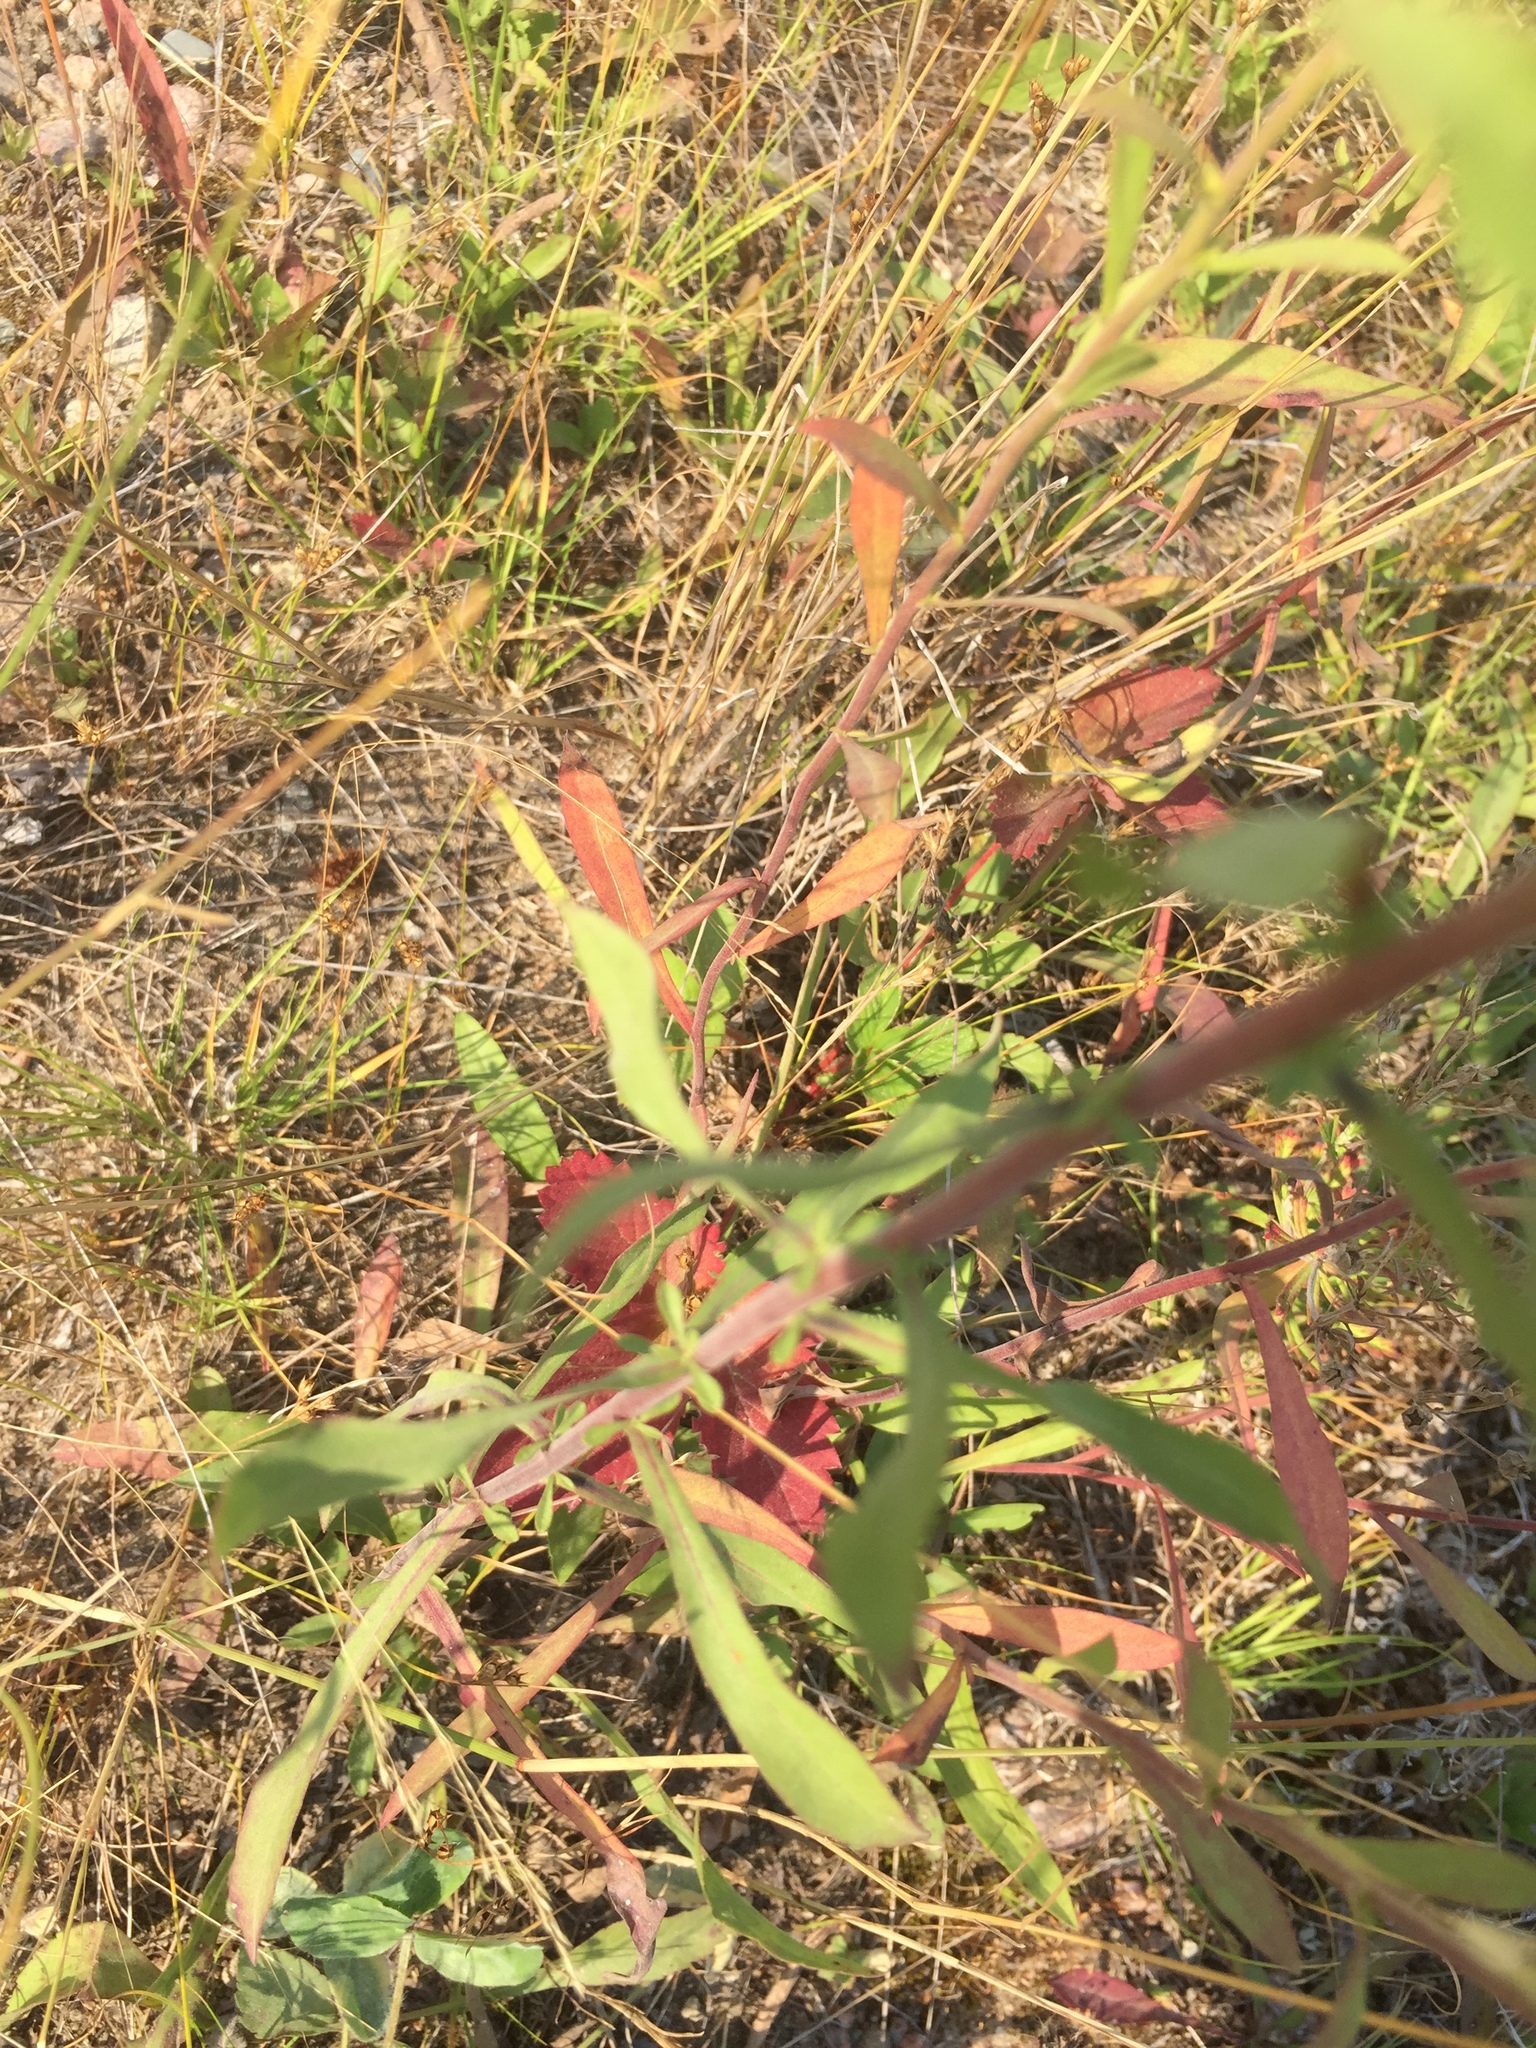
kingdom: Plantae
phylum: Tracheophyta
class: Magnoliopsida
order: Asterales
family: Asteraceae
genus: Solidago
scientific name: Solidago nemoralis
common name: Grey goldenrod
